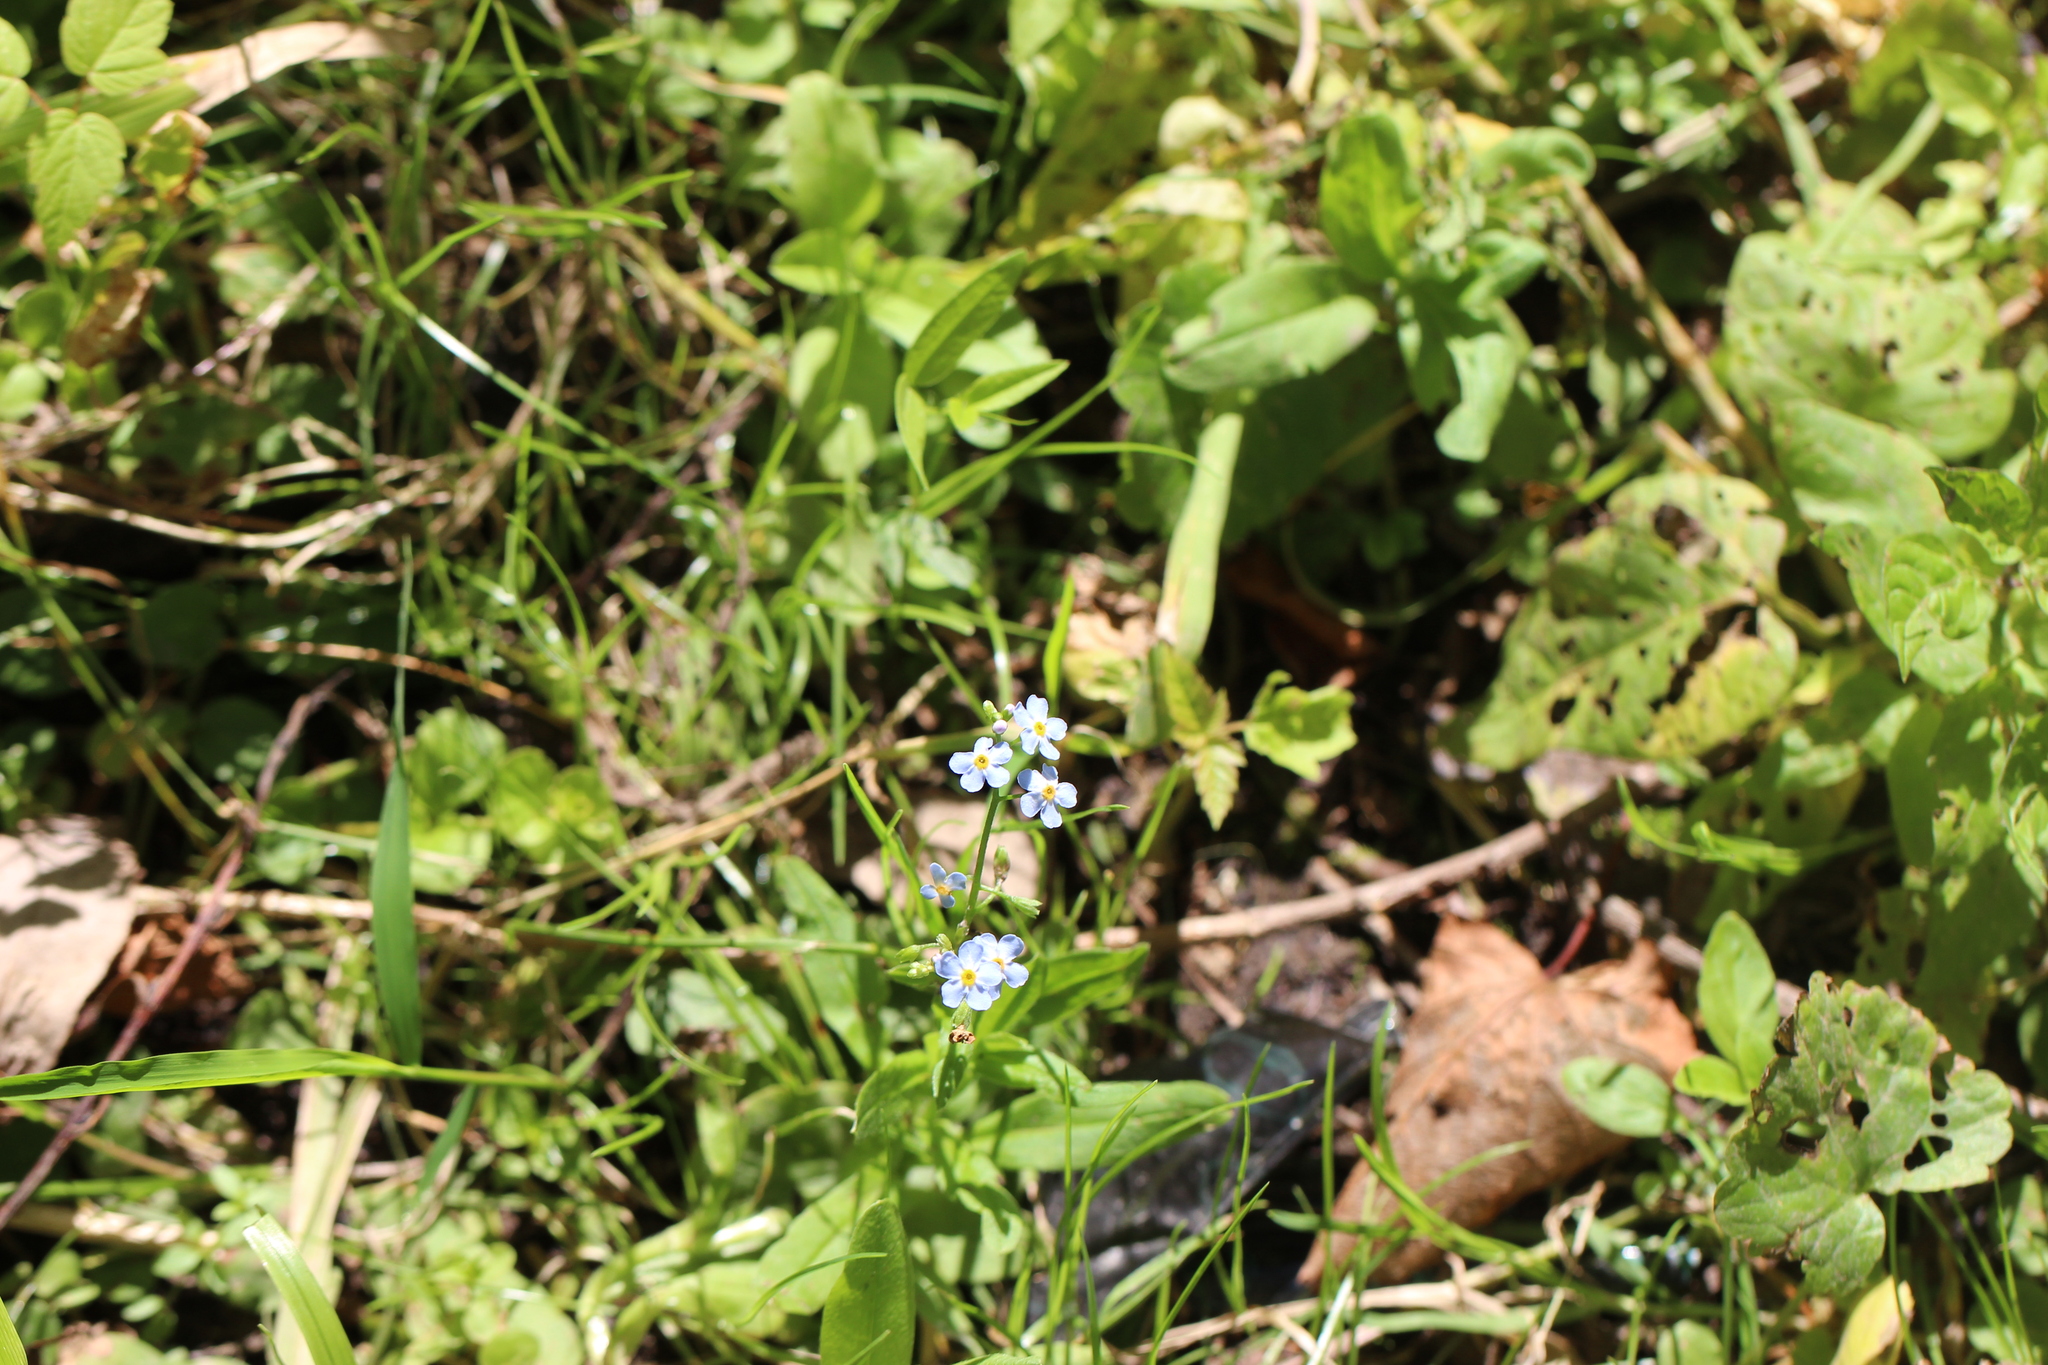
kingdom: Plantae
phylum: Tracheophyta
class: Magnoliopsida
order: Boraginales
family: Boraginaceae
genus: Myosotis
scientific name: Myosotis scorpioides
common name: Water forget-me-not
